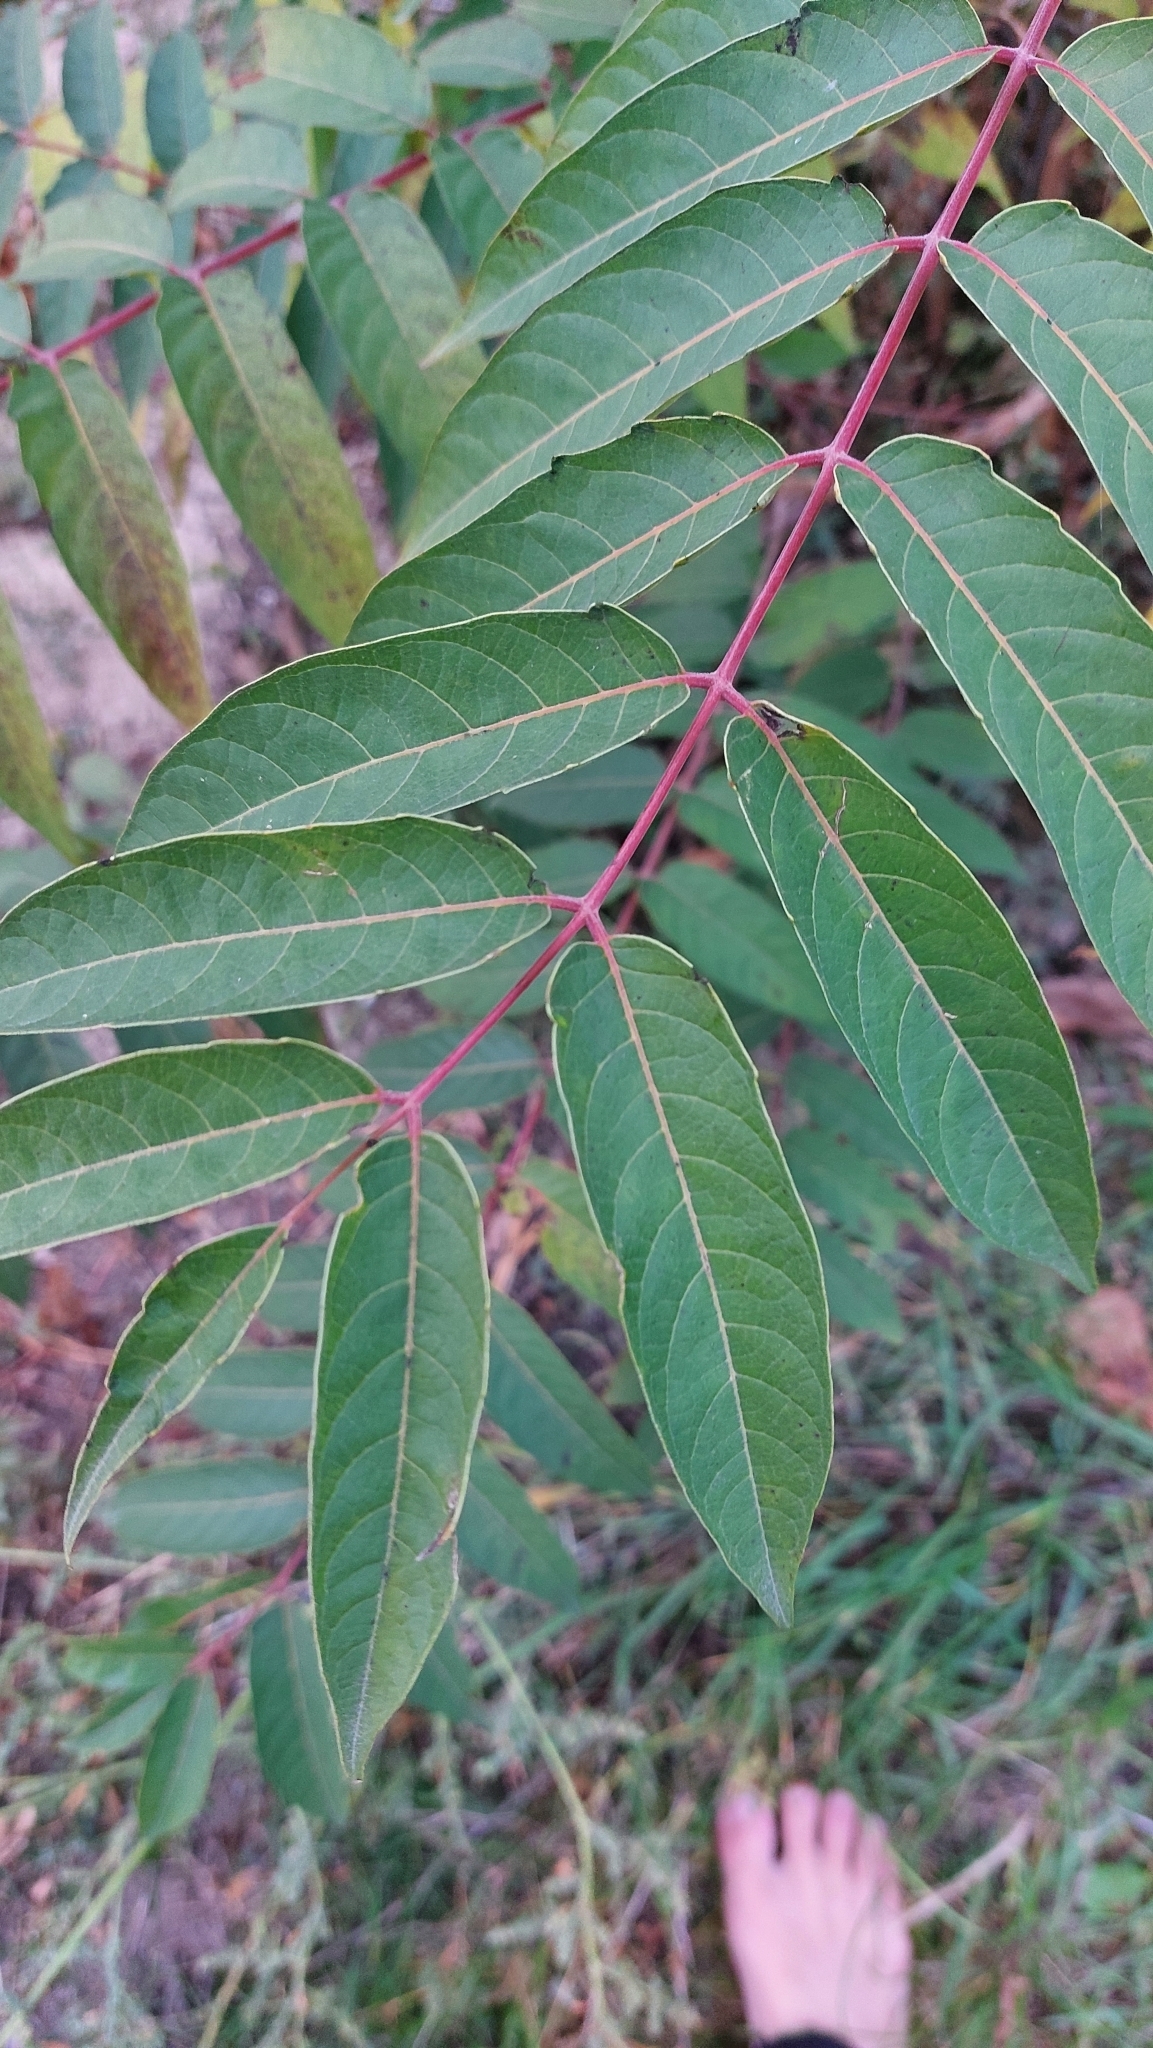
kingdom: Plantae
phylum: Tracheophyta
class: Magnoliopsida
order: Sapindales
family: Simaroubaceae
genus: Ailanthus
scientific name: Ailanthus altissima
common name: Tree-of-heaven
